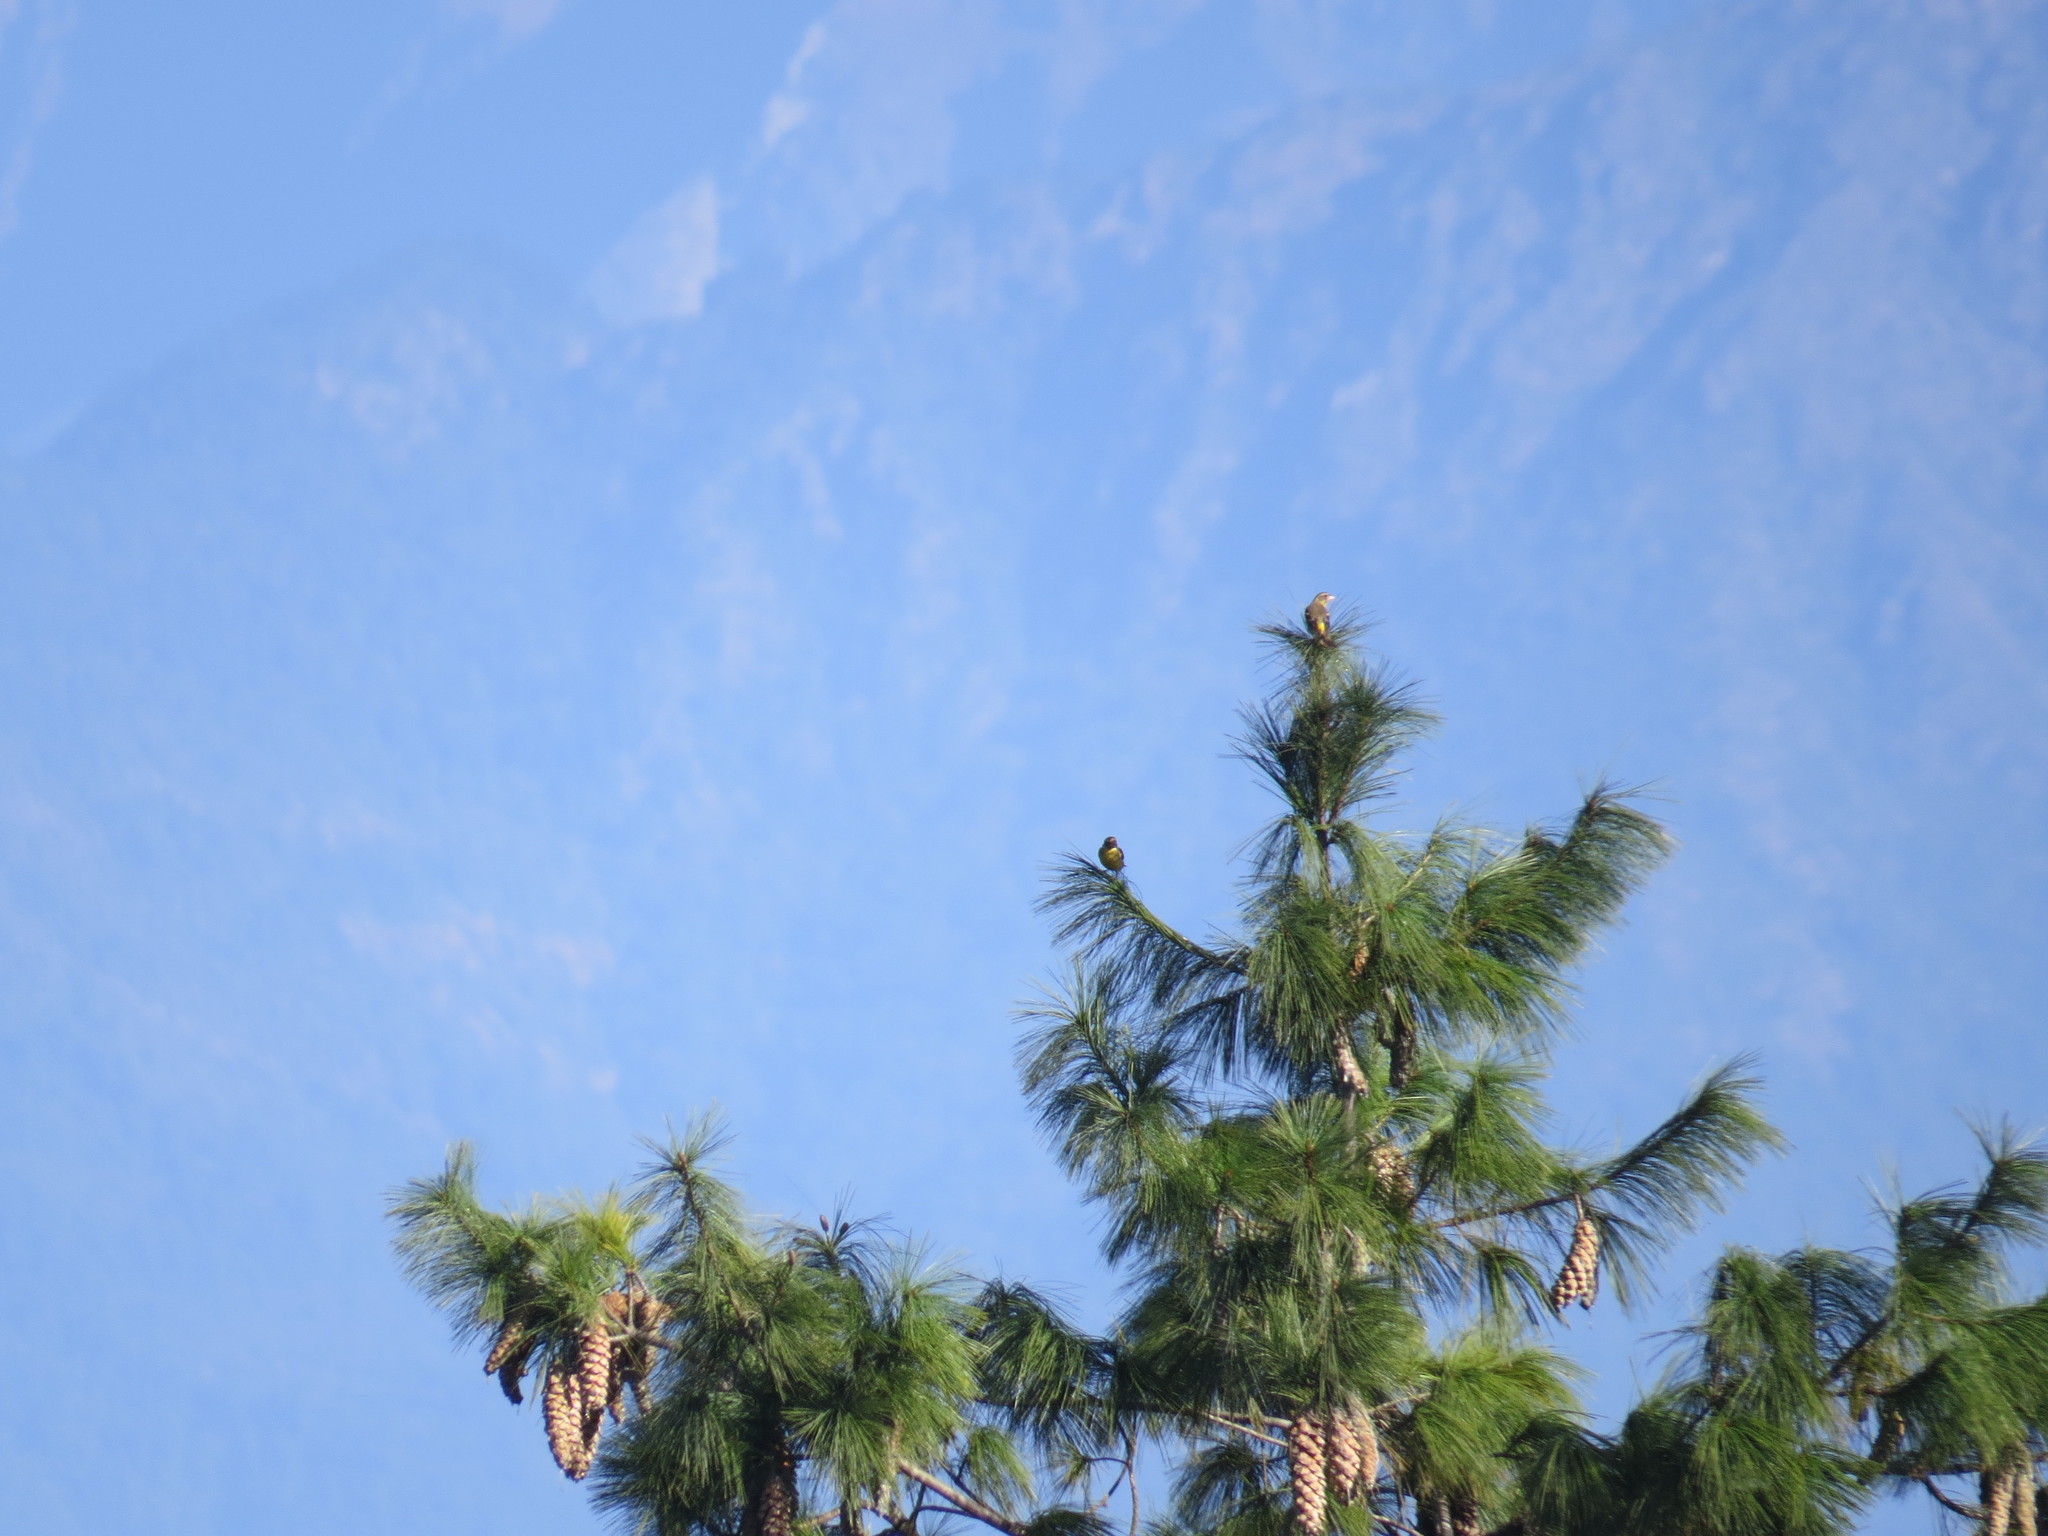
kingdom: Animalia
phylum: Chordata
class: Aves
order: Passeriformes
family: Fringillidae
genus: Chloris
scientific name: Chloris spinoides
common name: Yellow-breasted greenfinch
